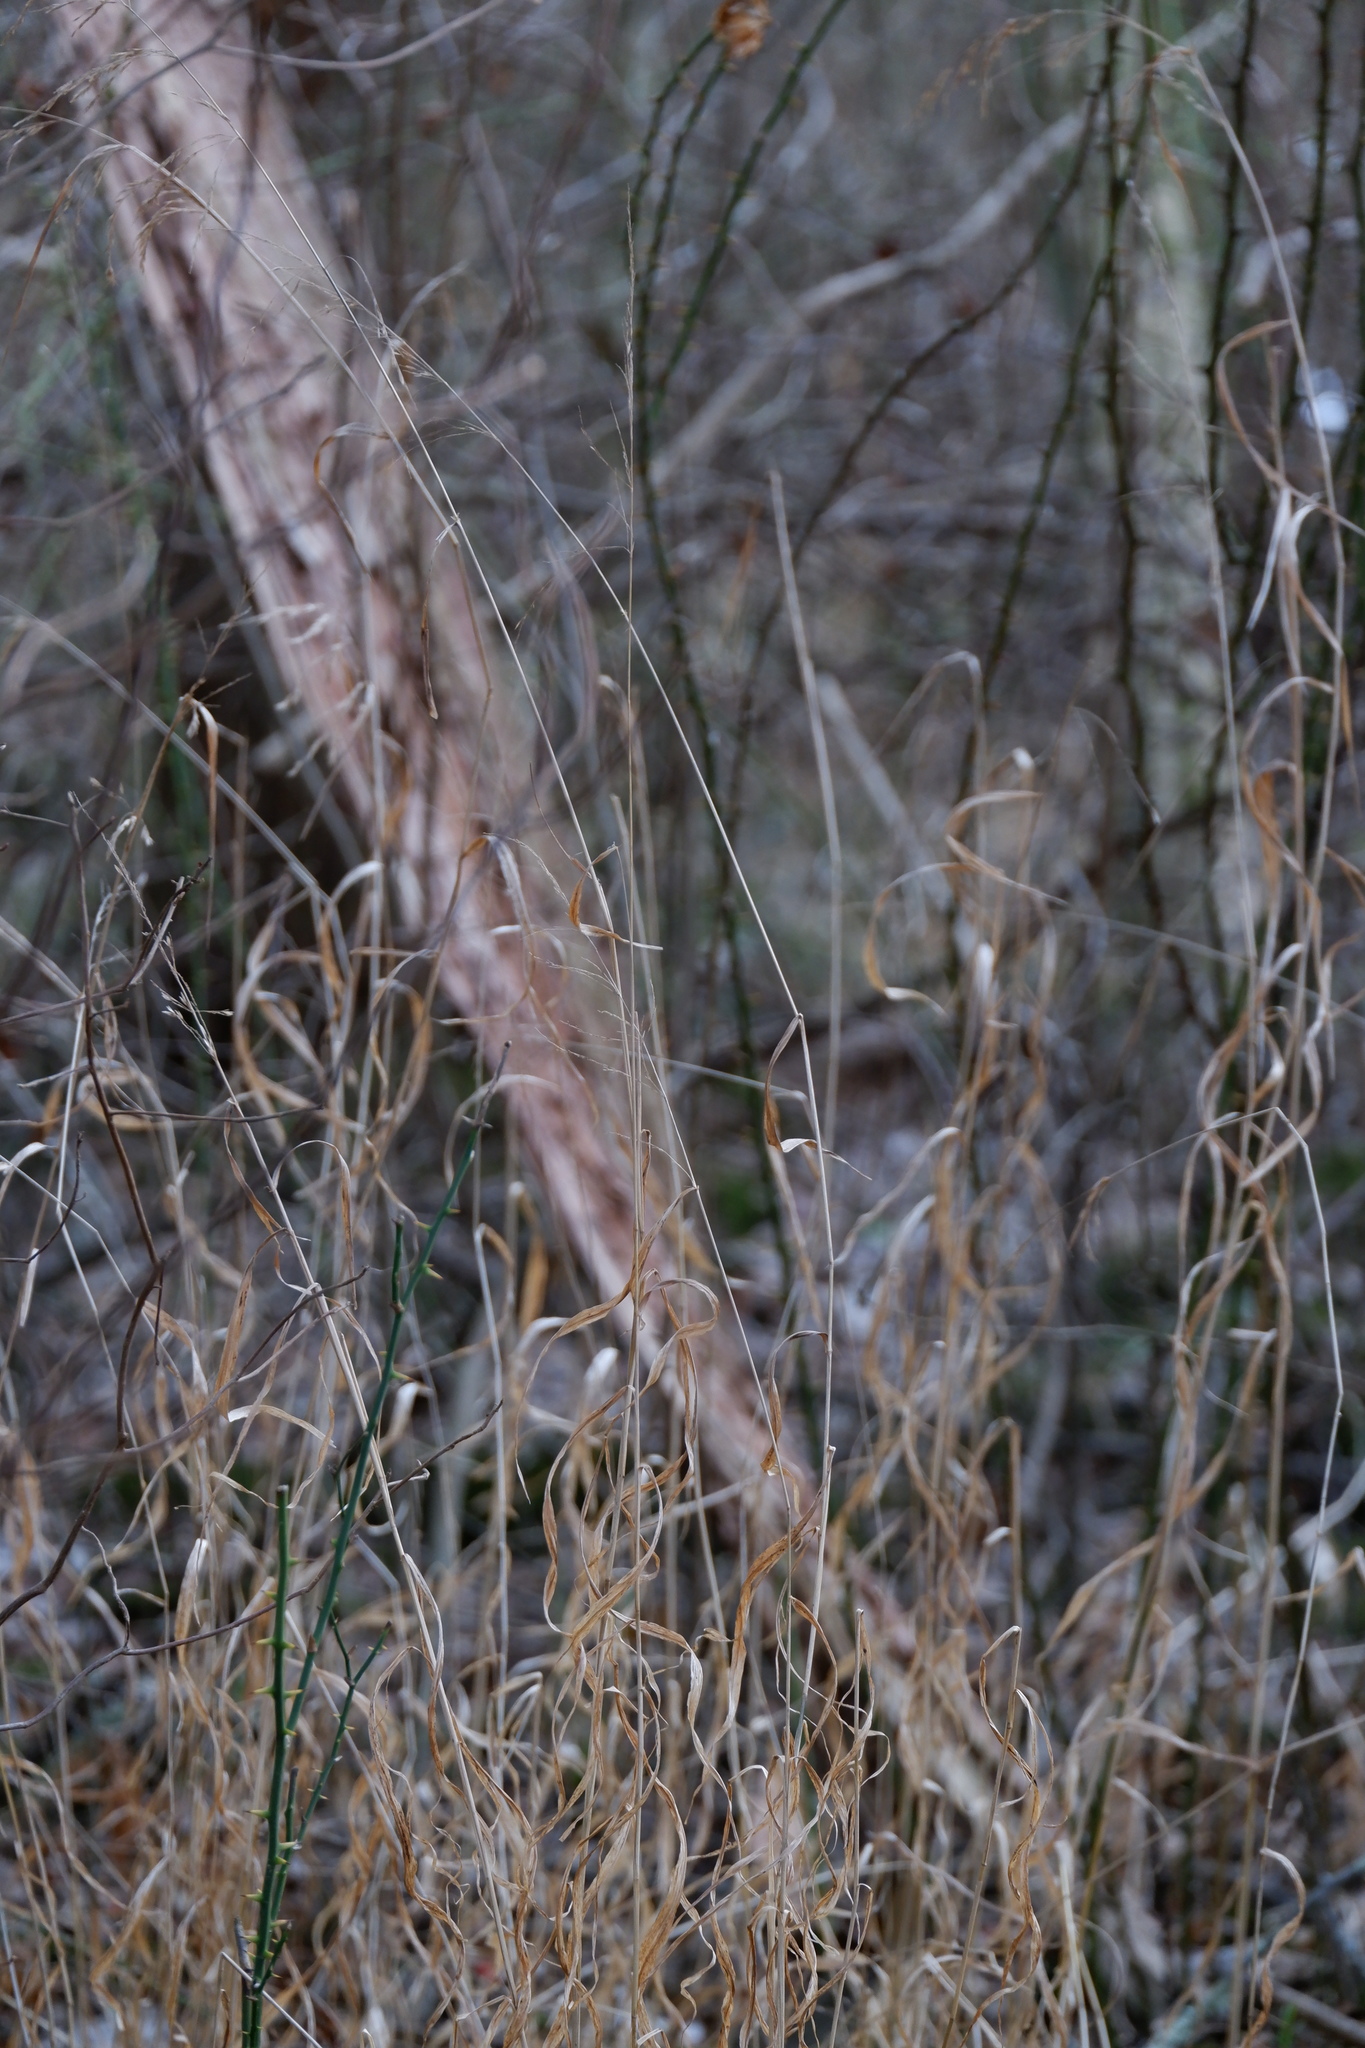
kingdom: Plantae
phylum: Tracheophyta
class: Liliopsida
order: Poales
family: Poaceae
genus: Cinna
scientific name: Cinna arundinacea
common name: Stout woodreed
